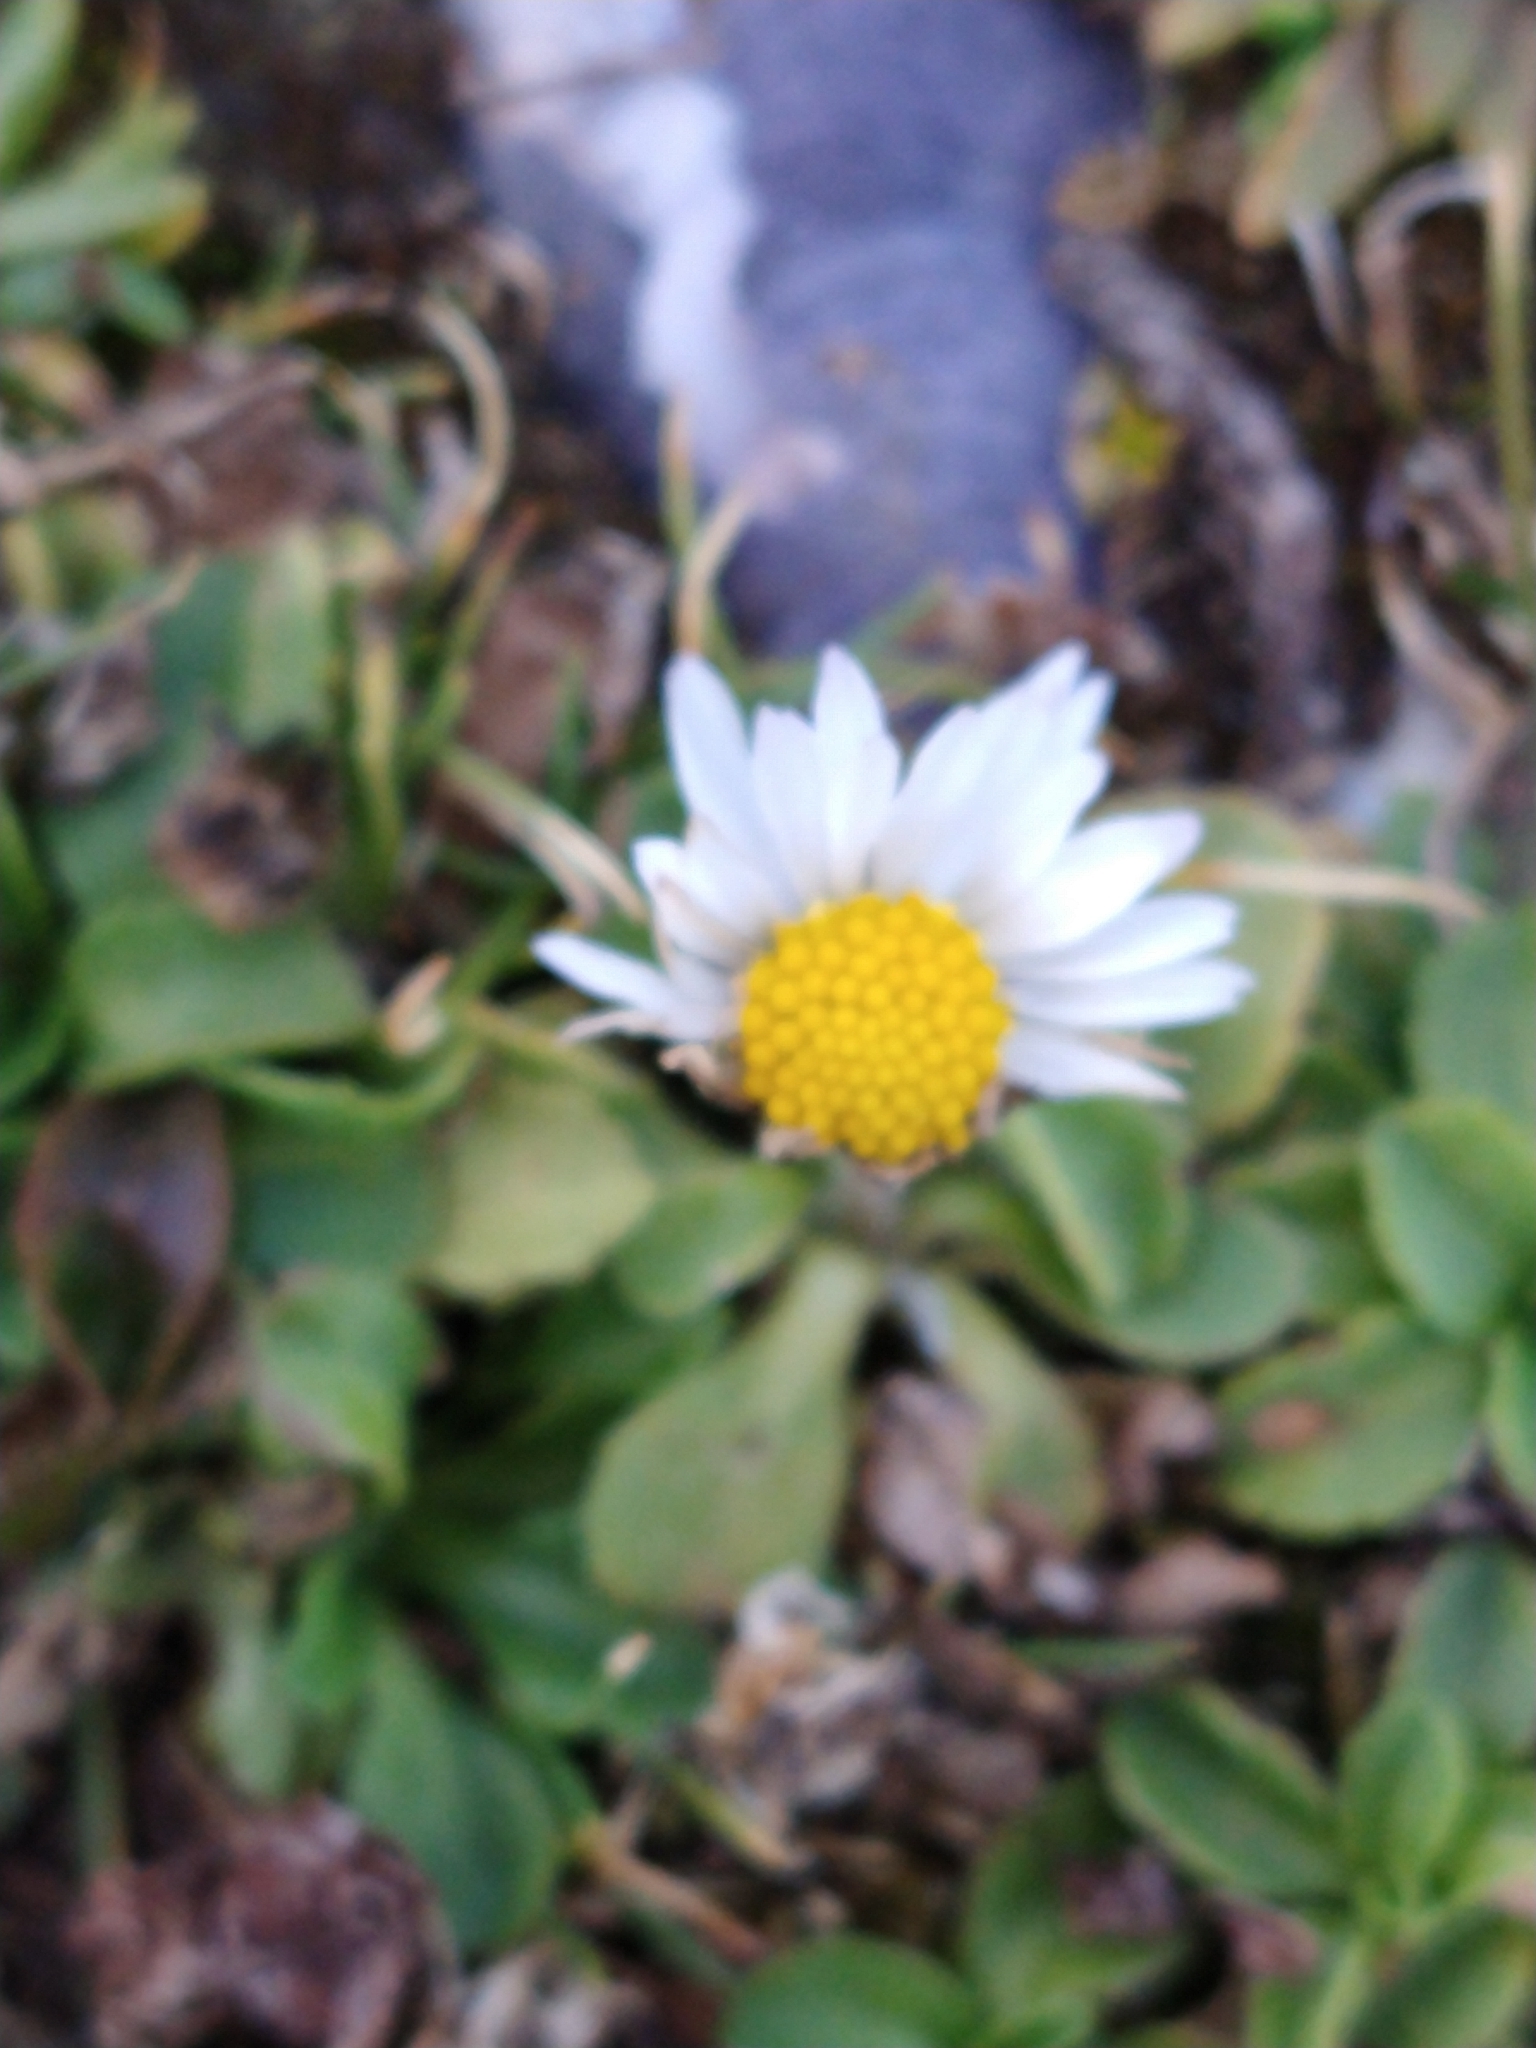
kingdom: Plantae
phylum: Tracheophyta
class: Magnoliopsida
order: Asterales
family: Asteraceae
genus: Bellis
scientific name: Bellis perennis
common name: Lawndaisy
